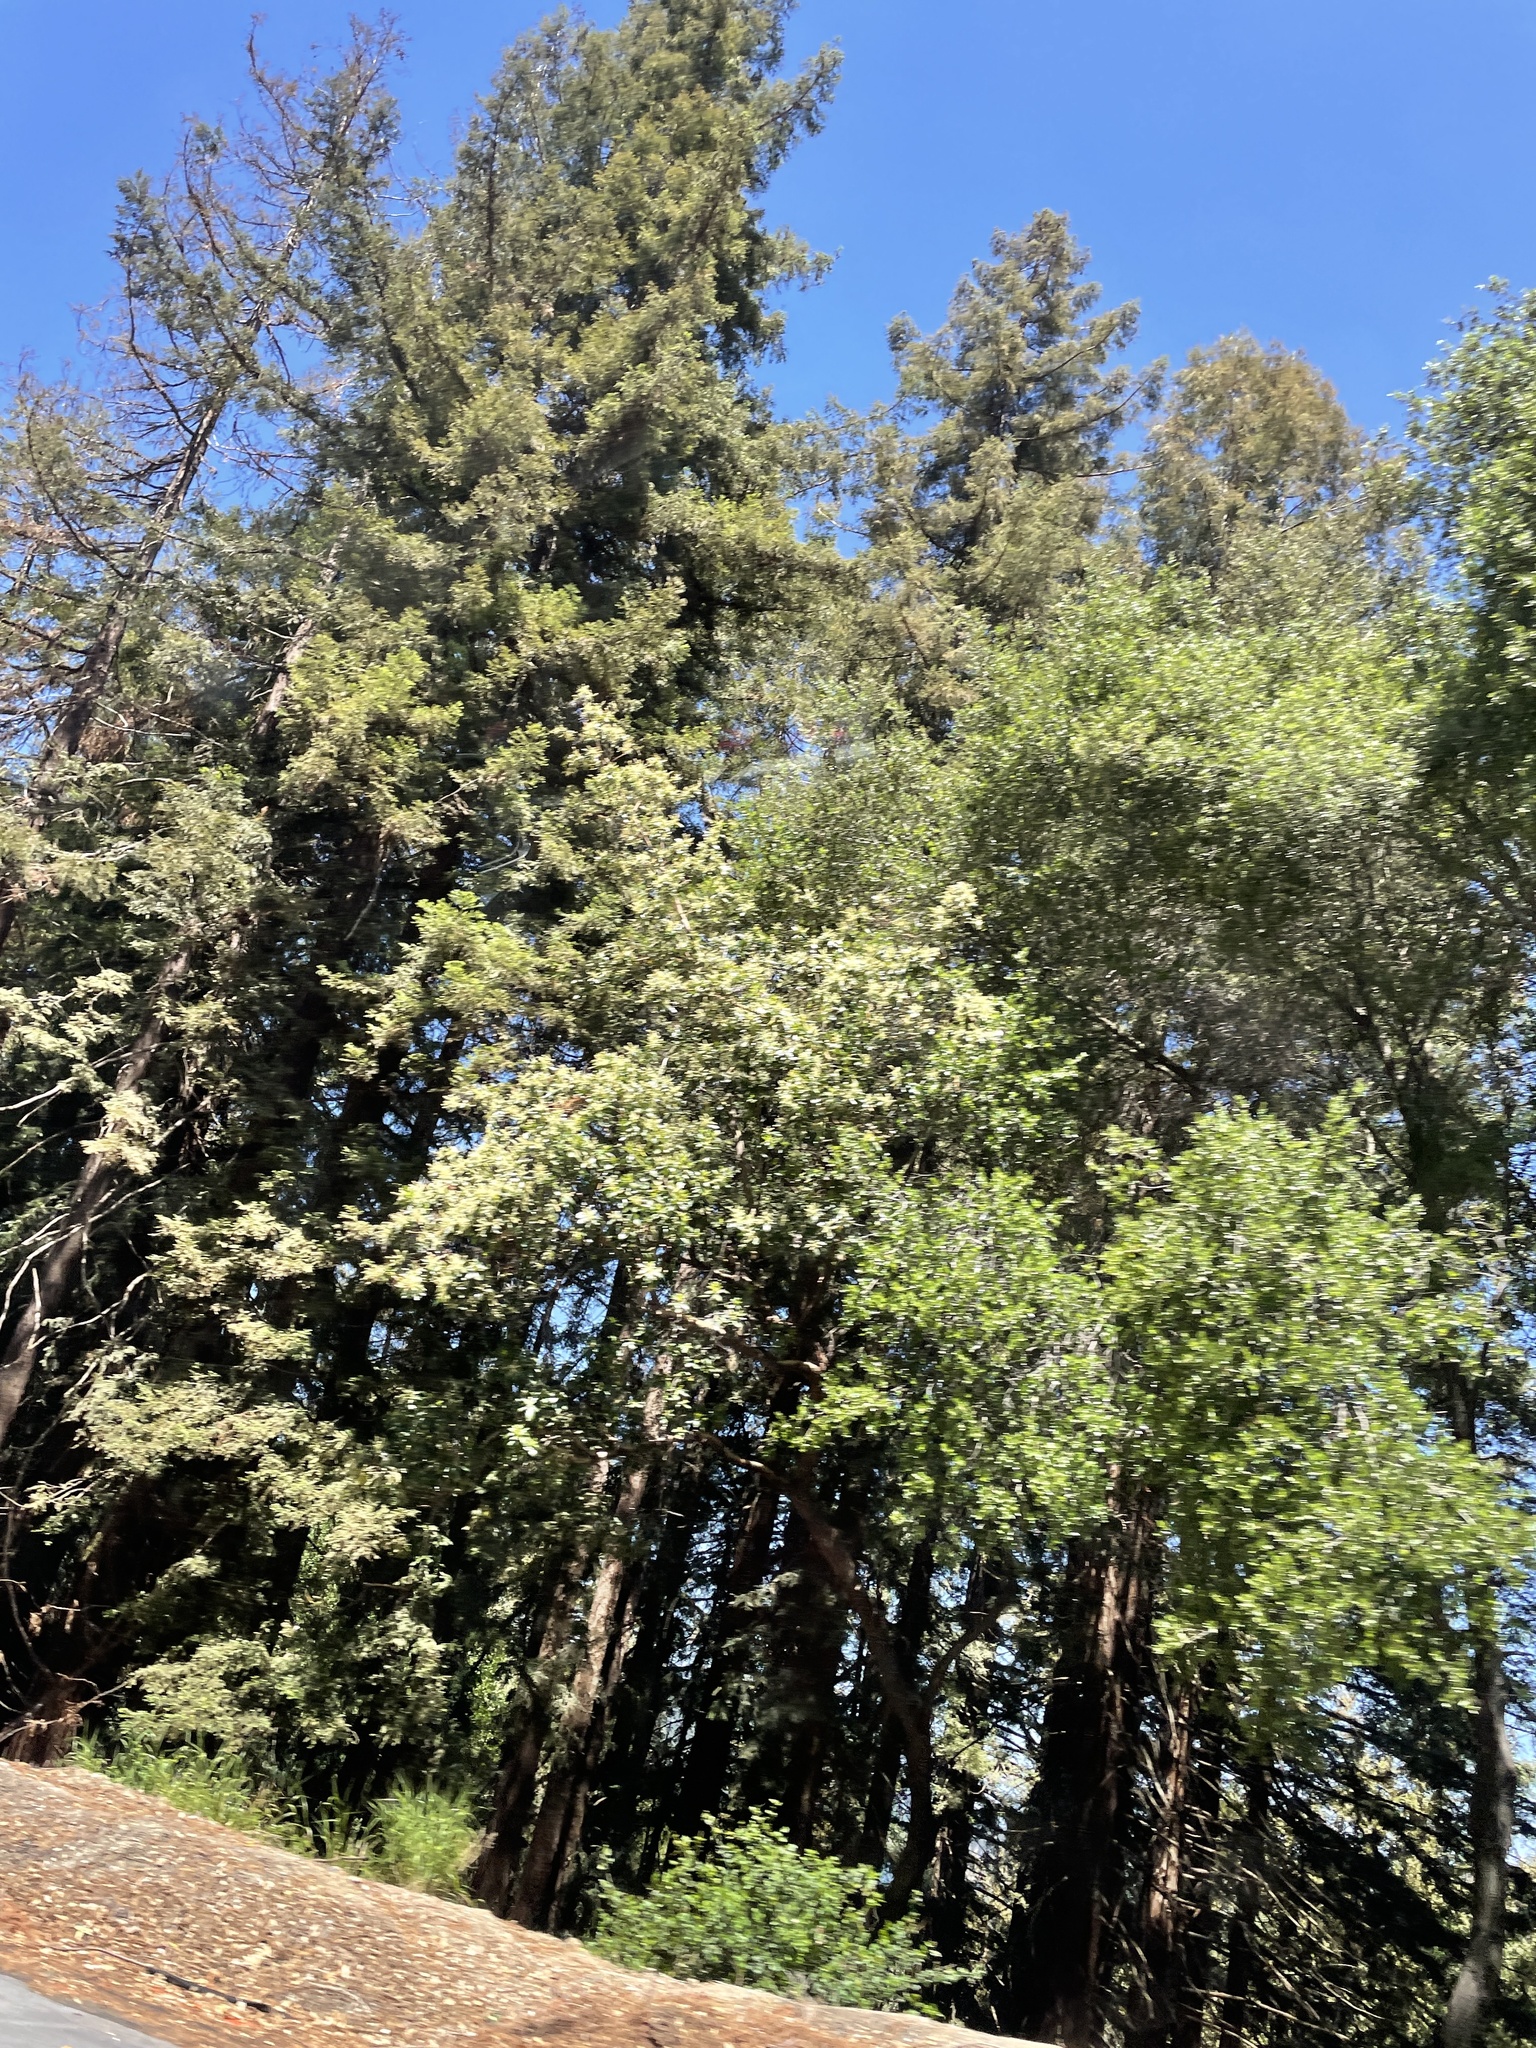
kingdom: Plantae
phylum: Tracheophyta
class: Pinopsida
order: Pinales
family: Cupressaceae
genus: Sequoia
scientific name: Sequoia sempervirens
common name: Coast redwood
